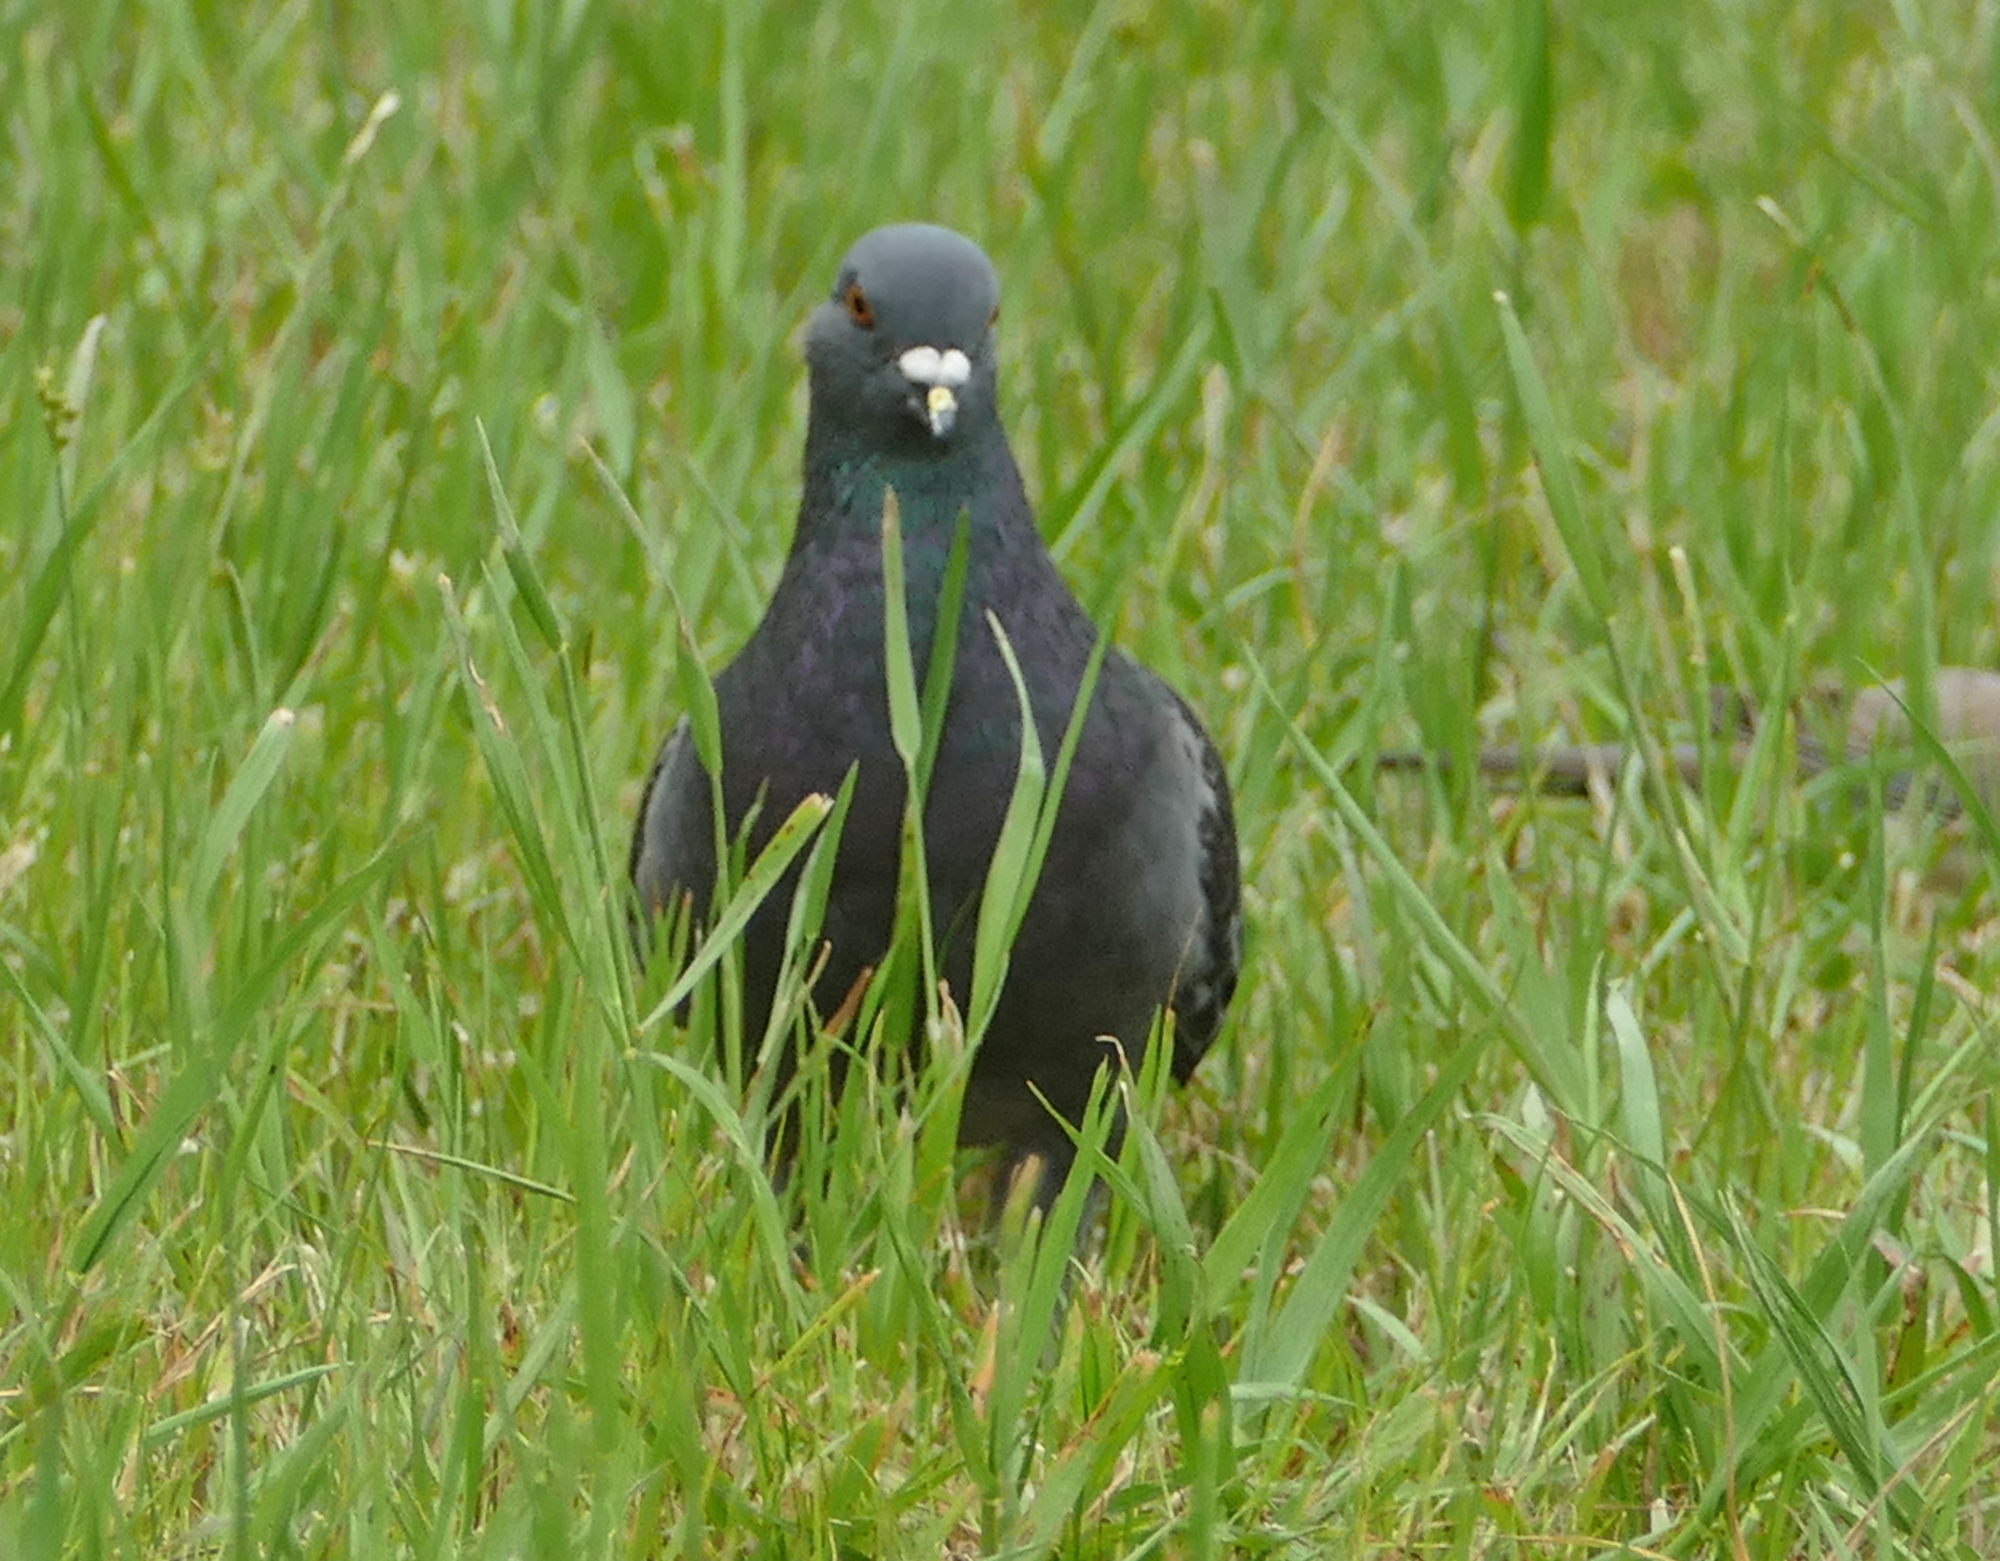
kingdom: Animalia
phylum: Chordata
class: Aves
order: Columbiformes
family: Columbidae
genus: Columba
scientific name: Columba livia
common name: Rock pigeon
